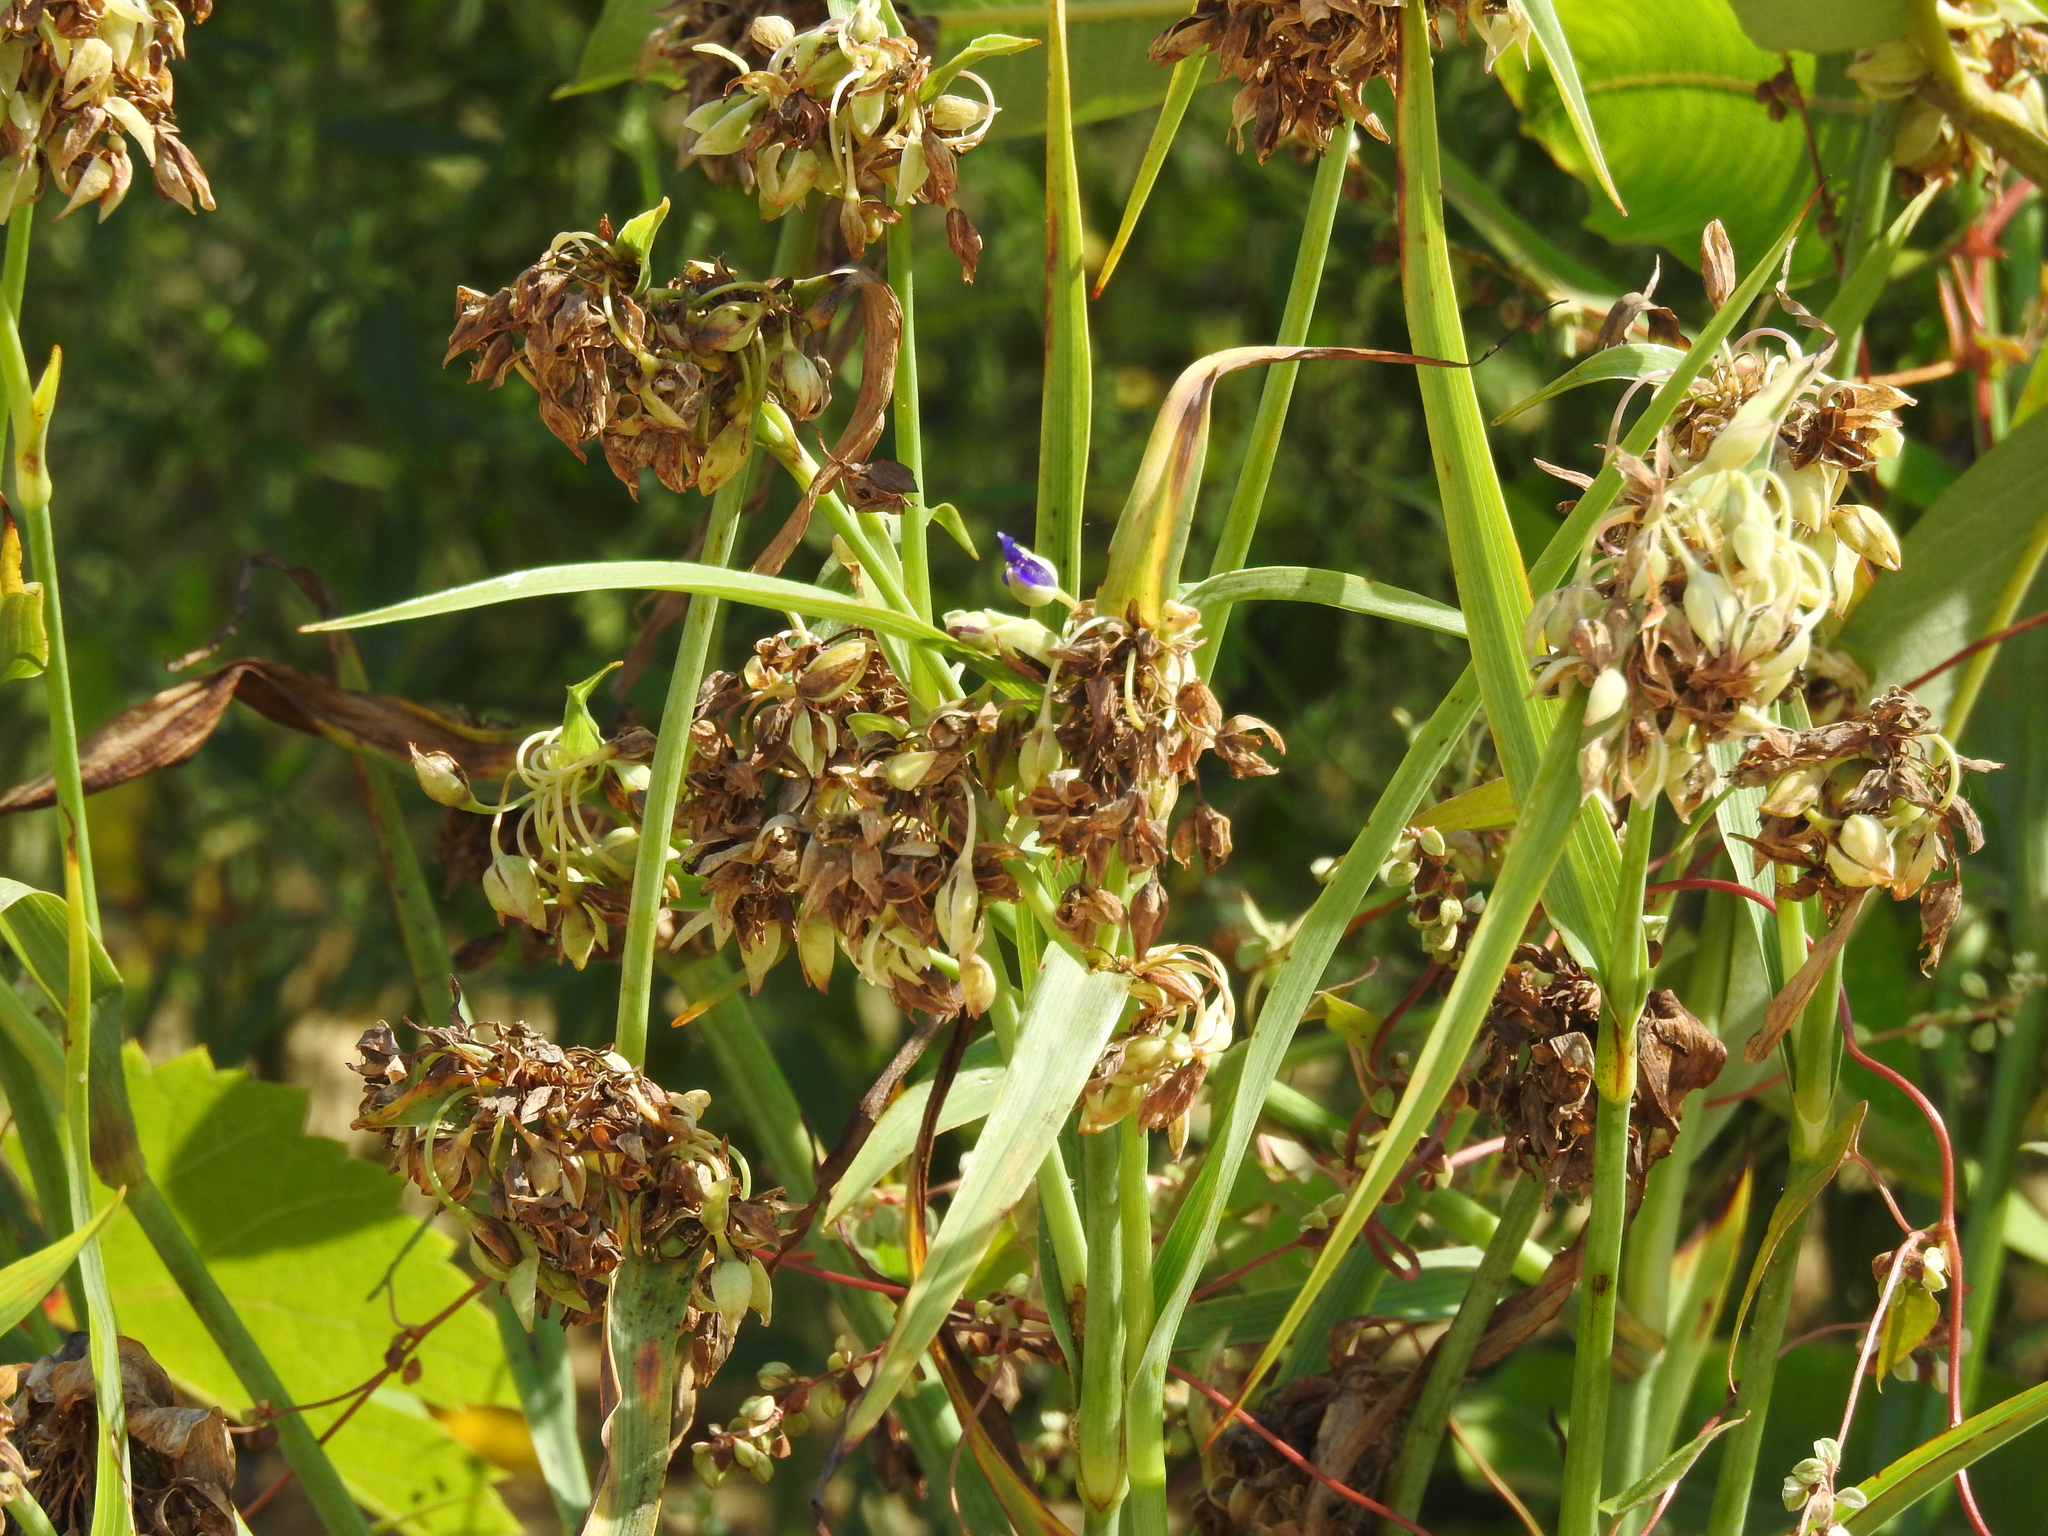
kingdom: Plantae
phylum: Tracheophyta
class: Liliopsida
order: Commelinales
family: Commelinaceae
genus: Tradescantia
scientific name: Tradescantia ohiensis
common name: Ohio spiderwort
